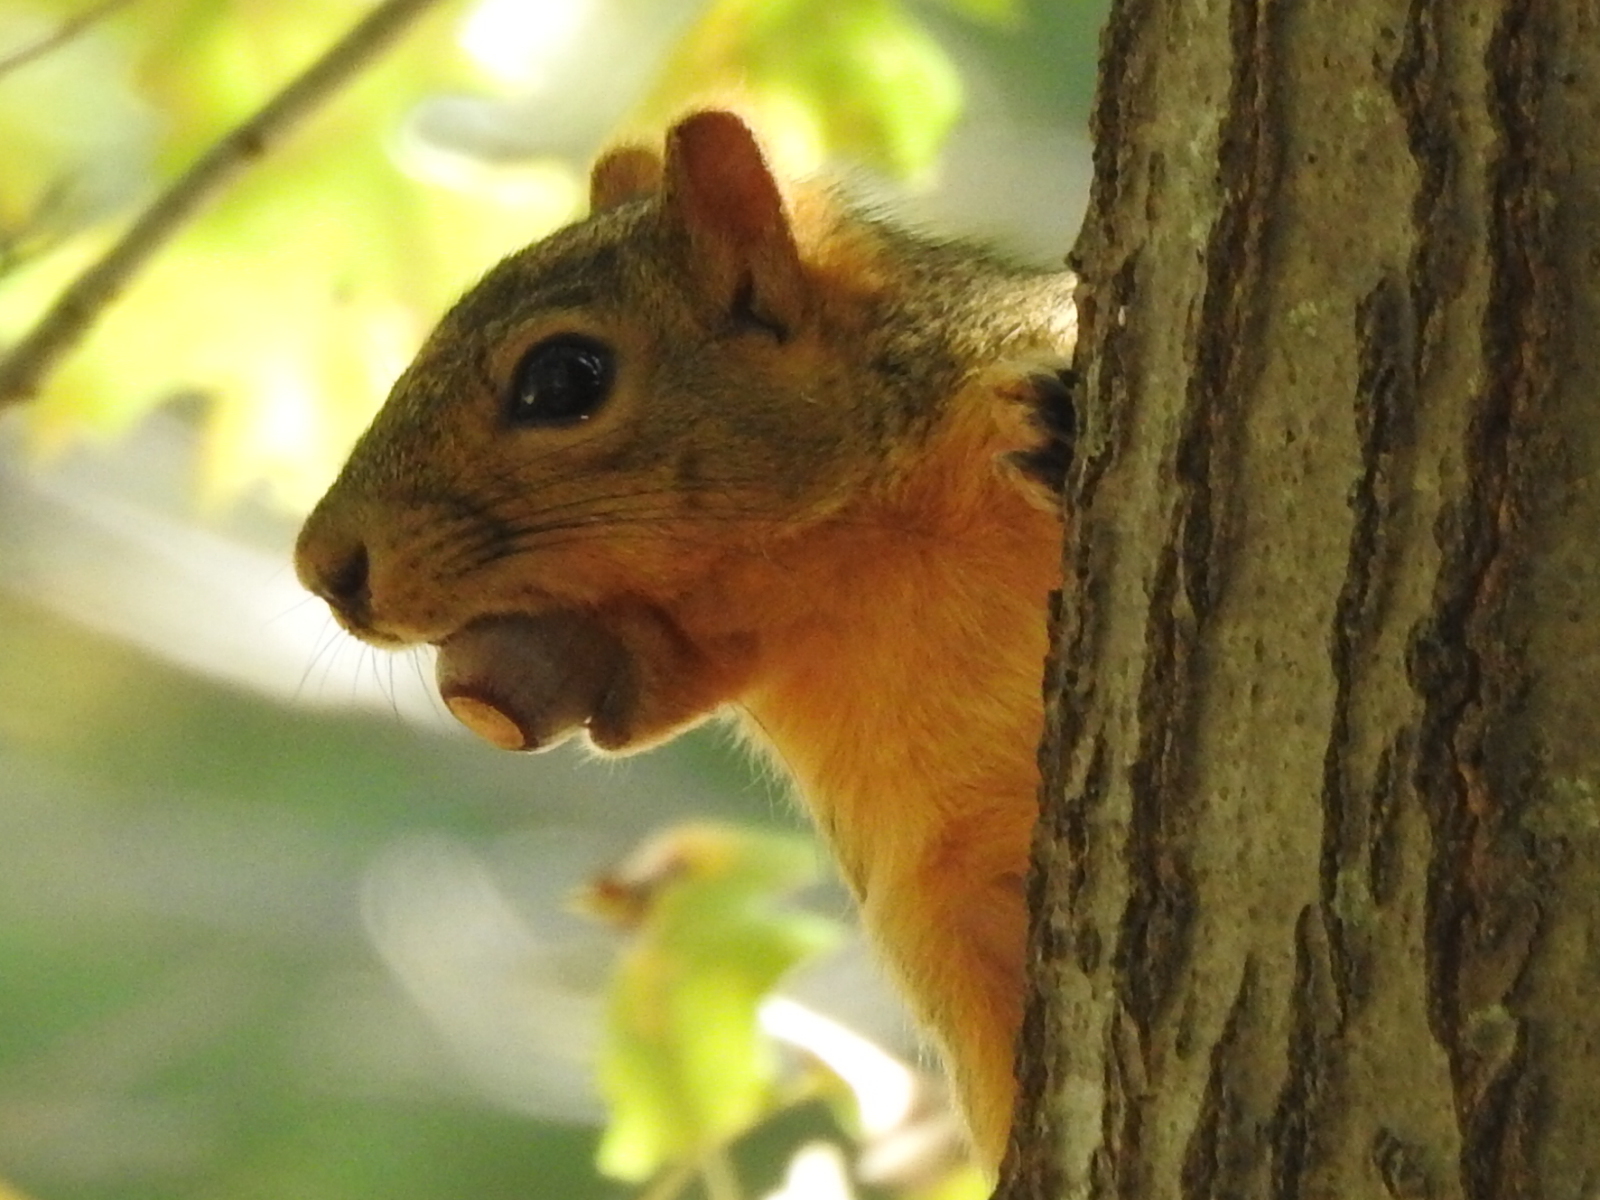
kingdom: Animalia
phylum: Chordata
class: Mammalia
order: Rodentia
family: Sciuridae
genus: Sciurus
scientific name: Sciurus niger
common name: Fox squirrel
